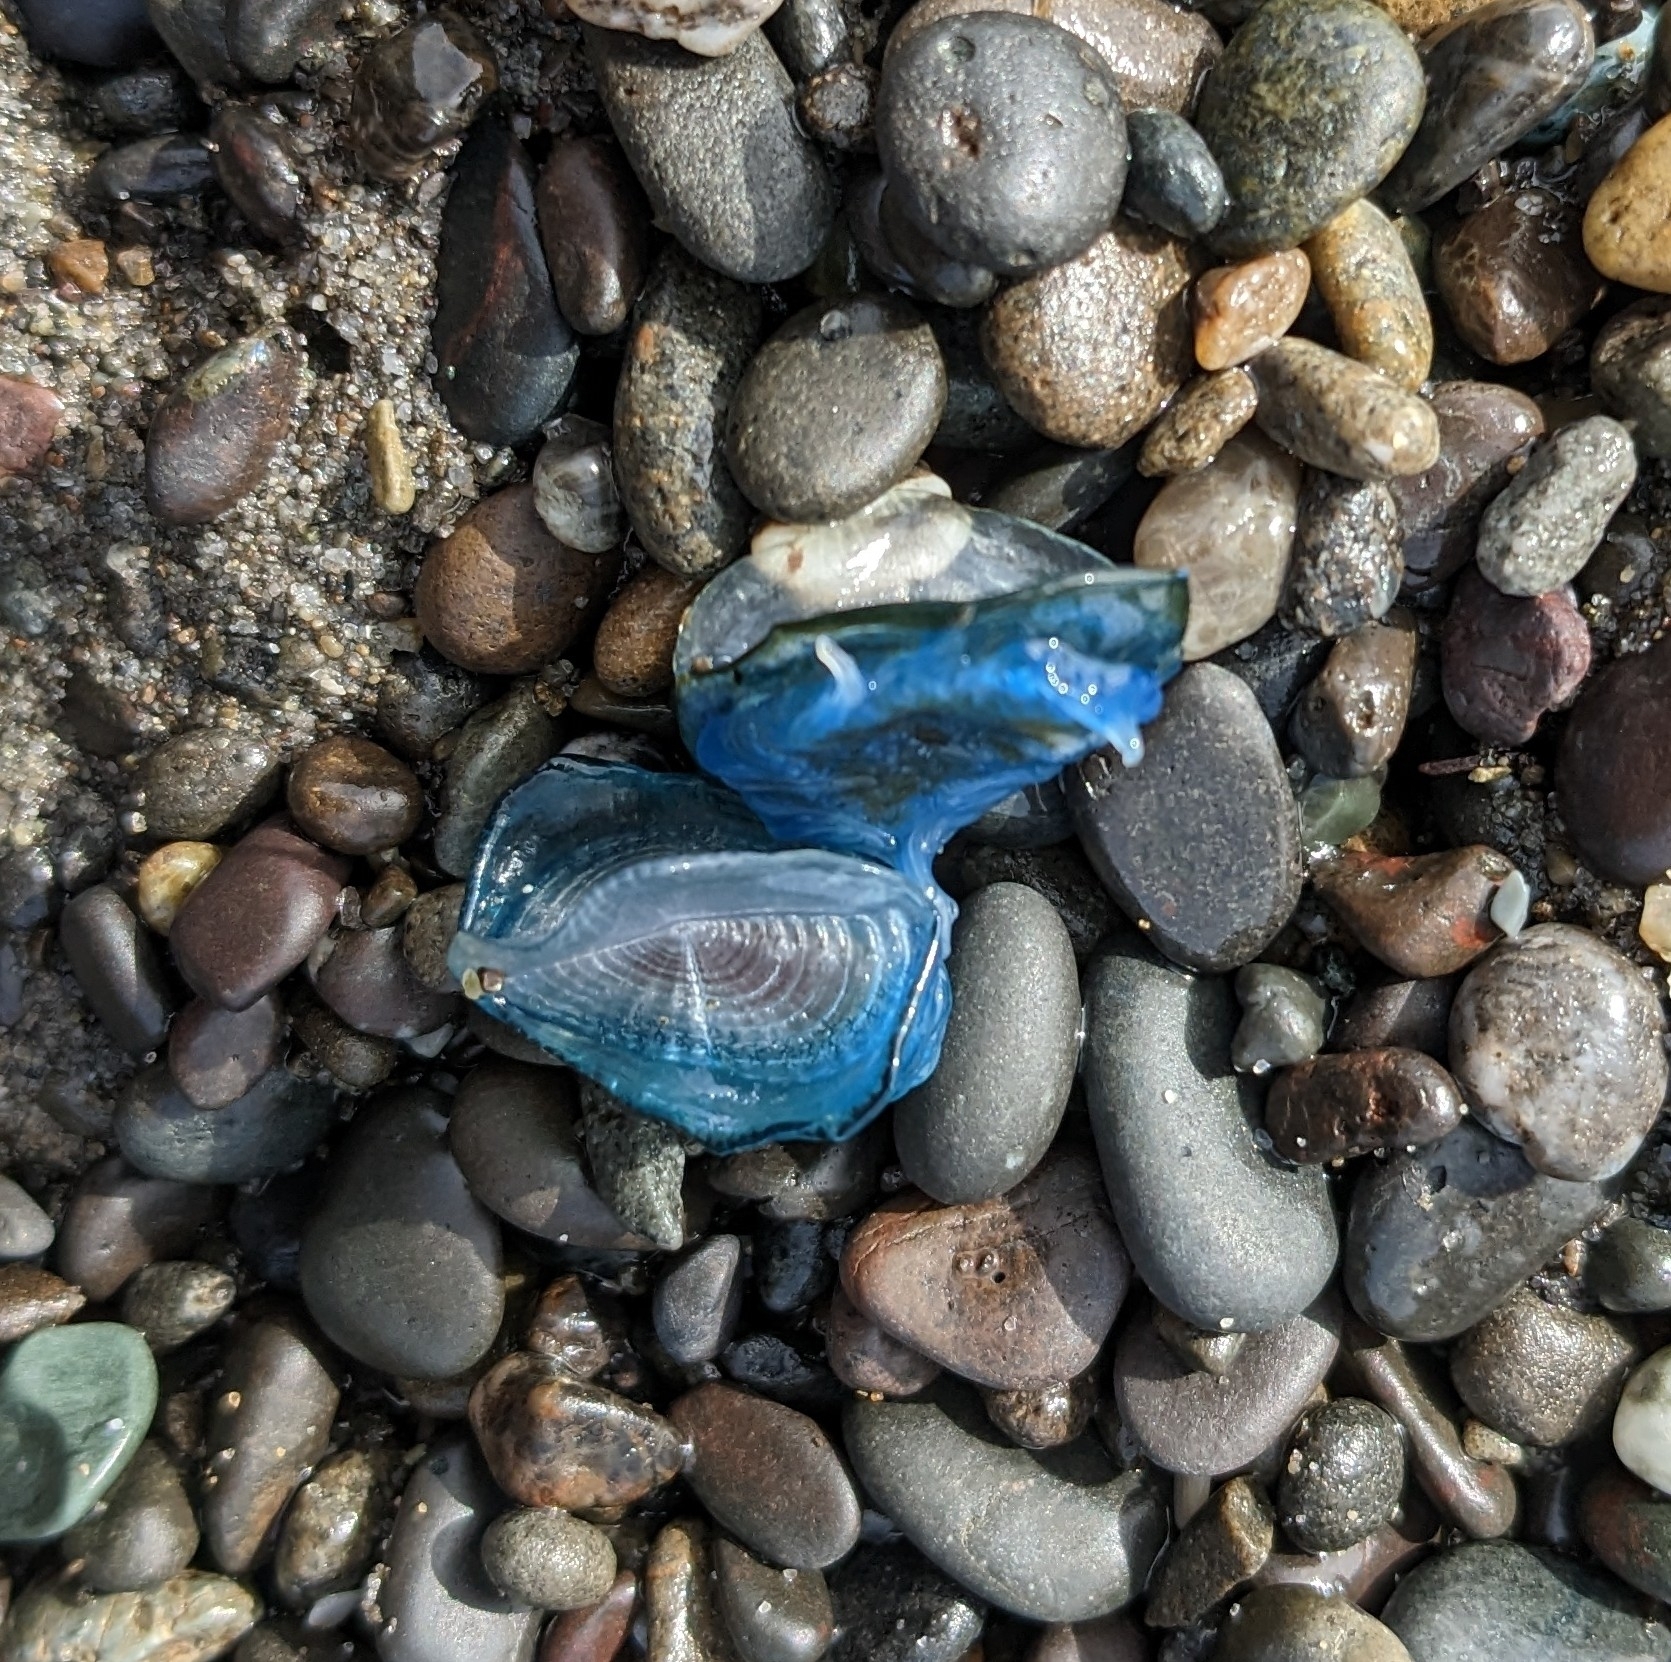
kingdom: Animalia
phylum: Cnidaria
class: Hydrozoa
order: Anthoathecata
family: Porpitidae
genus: Velella
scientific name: Velella velella
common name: By-the-wind-sailor
